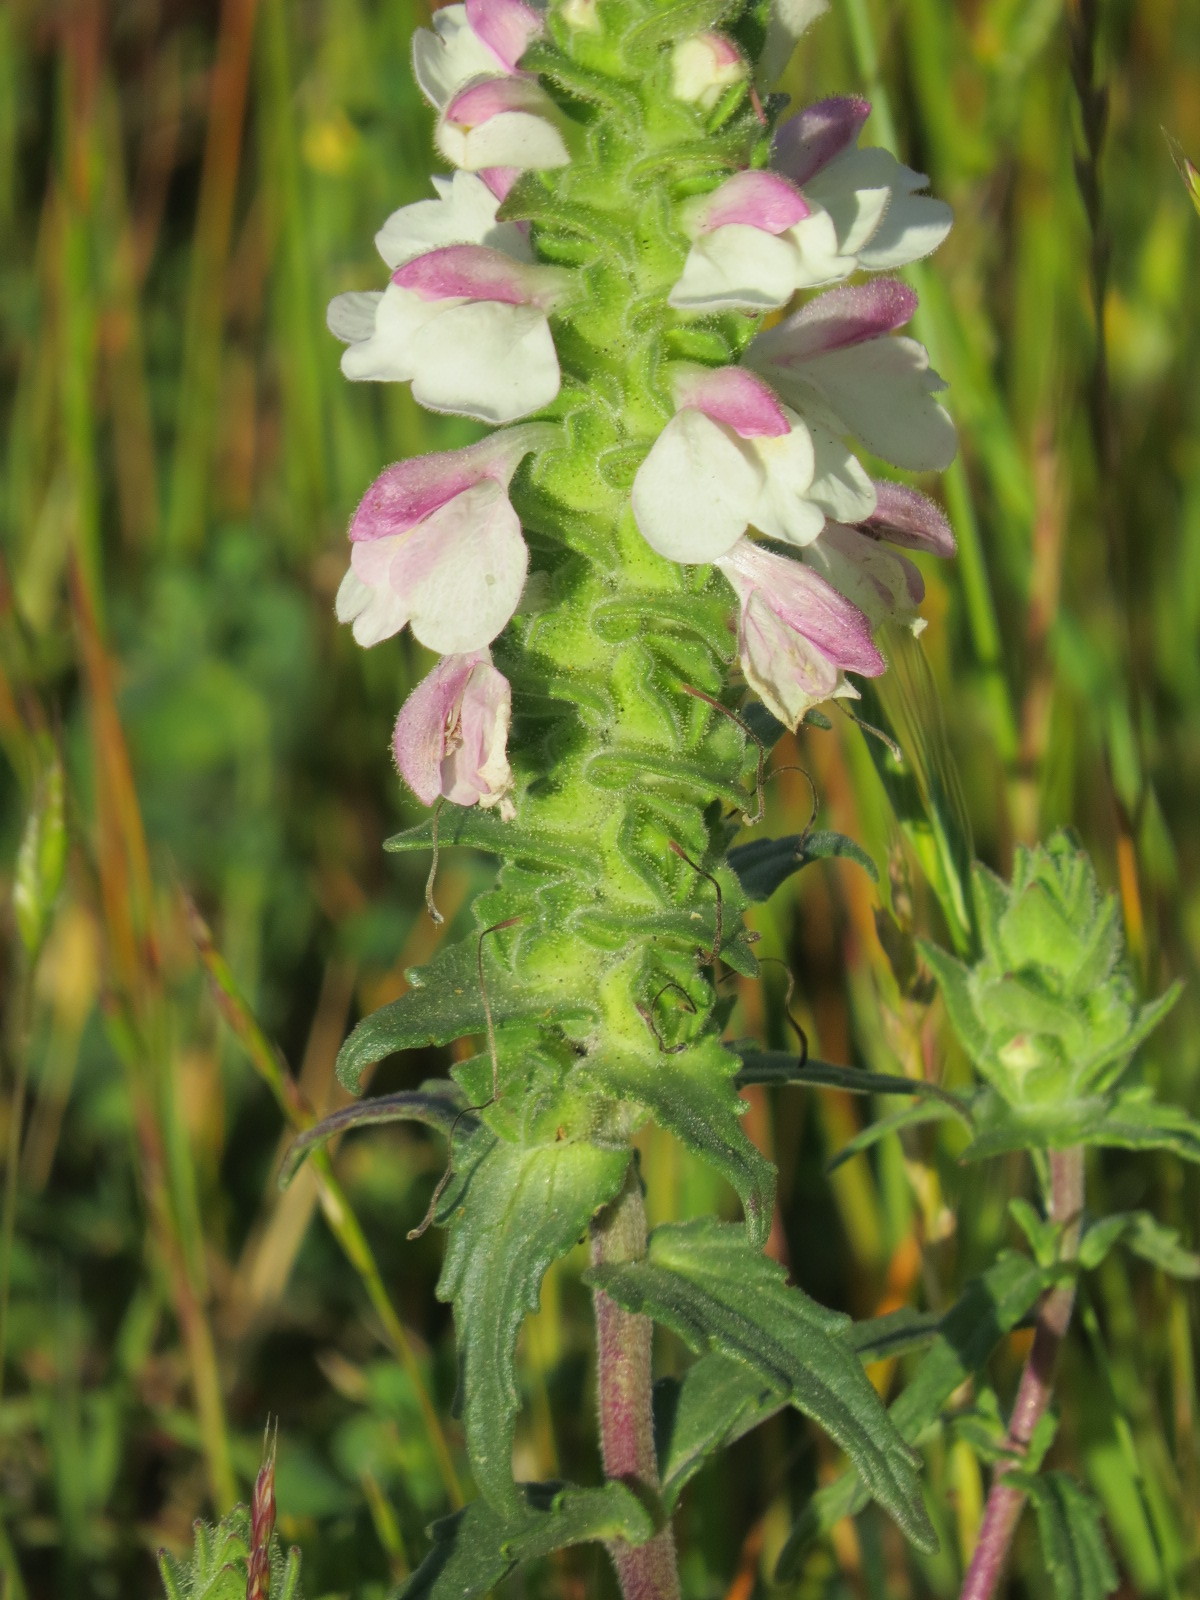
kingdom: Plantae
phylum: Tracheophyta
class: Magnoliopsida
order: Lamiales
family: Orobanchaceae
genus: Bellardia
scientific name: Bellardia trixago
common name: Mediterranean lineseed
